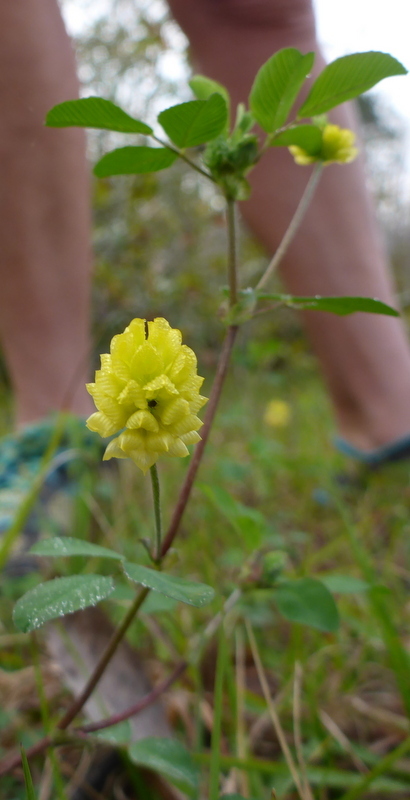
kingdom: Plantae
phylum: Tracheophyta
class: Magnoliopsida
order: Fabales
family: Fabaceae
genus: Trifolium
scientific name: Trifolium campestre
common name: Field clover
